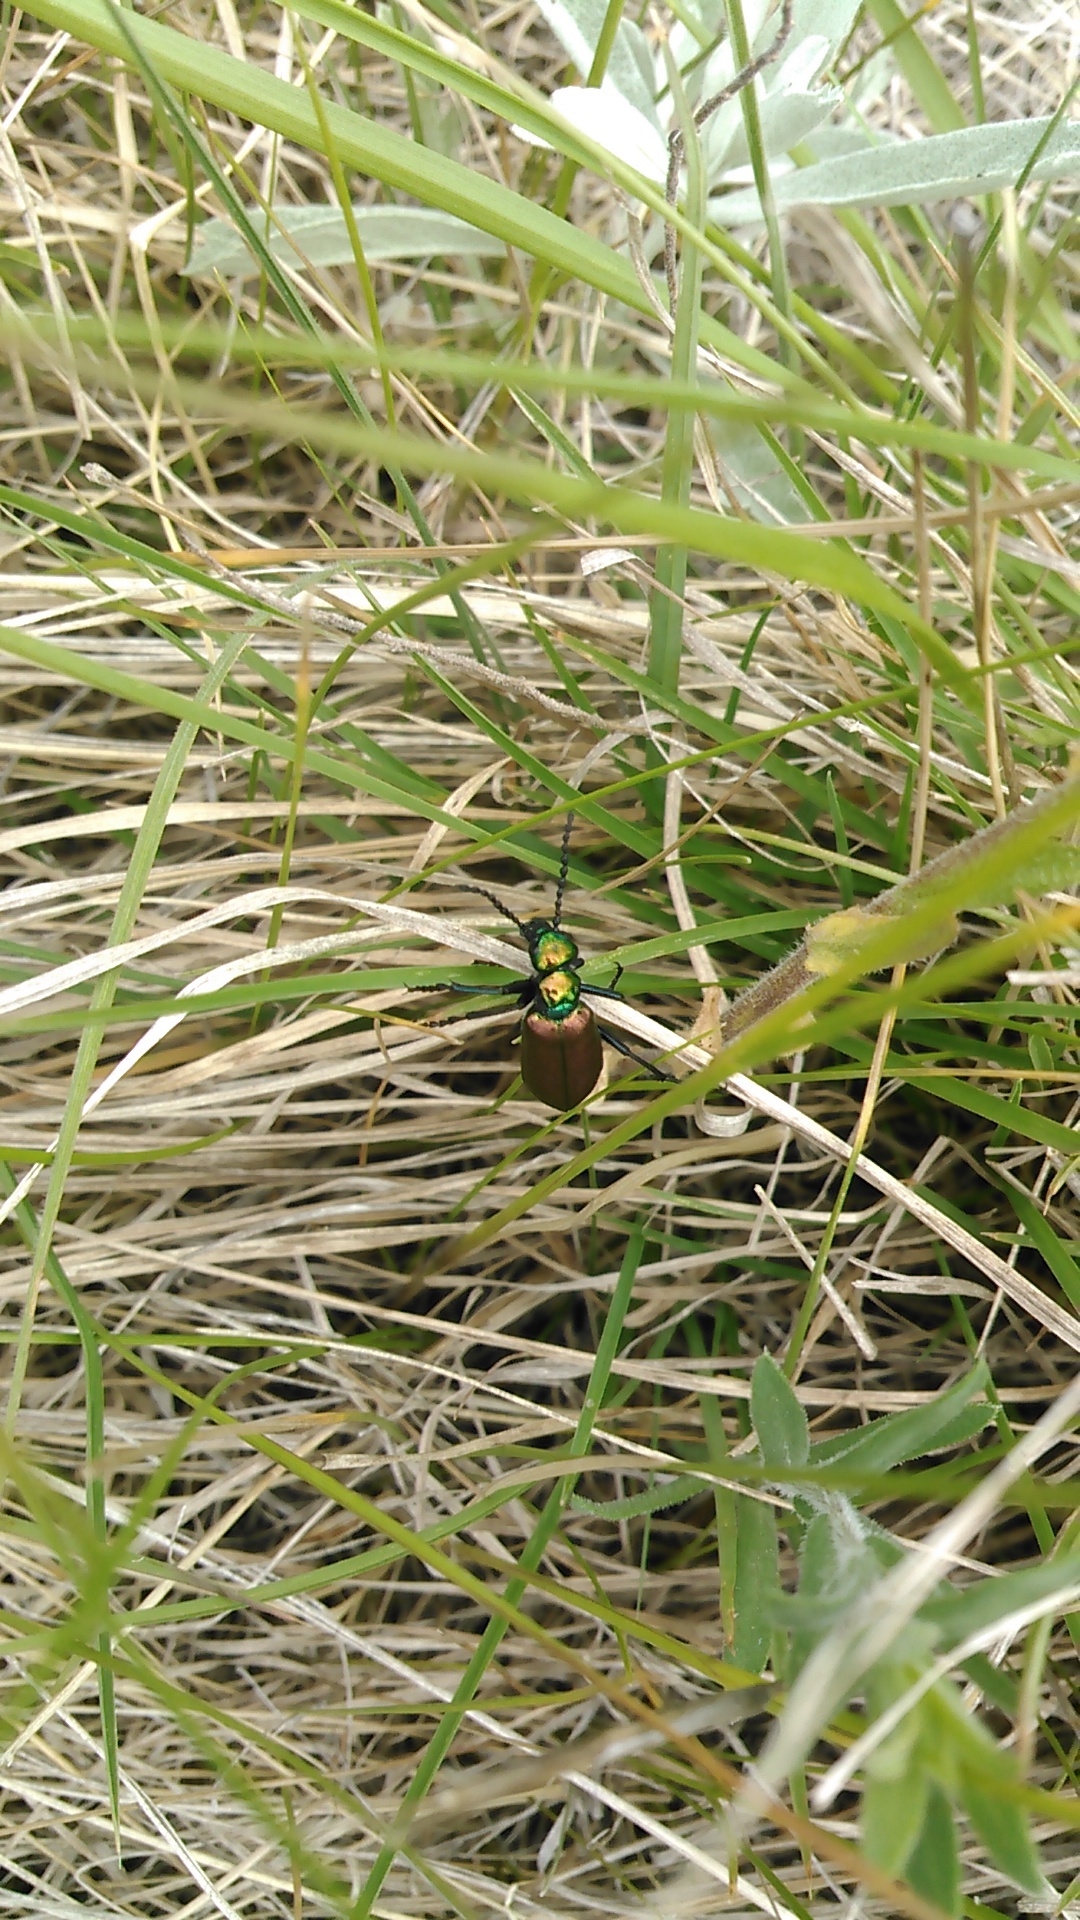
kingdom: Animalia
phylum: Arthropoda
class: Insecta
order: Coleoptera
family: Meloidae
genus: Lytta
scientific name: Lytta nuttallii
